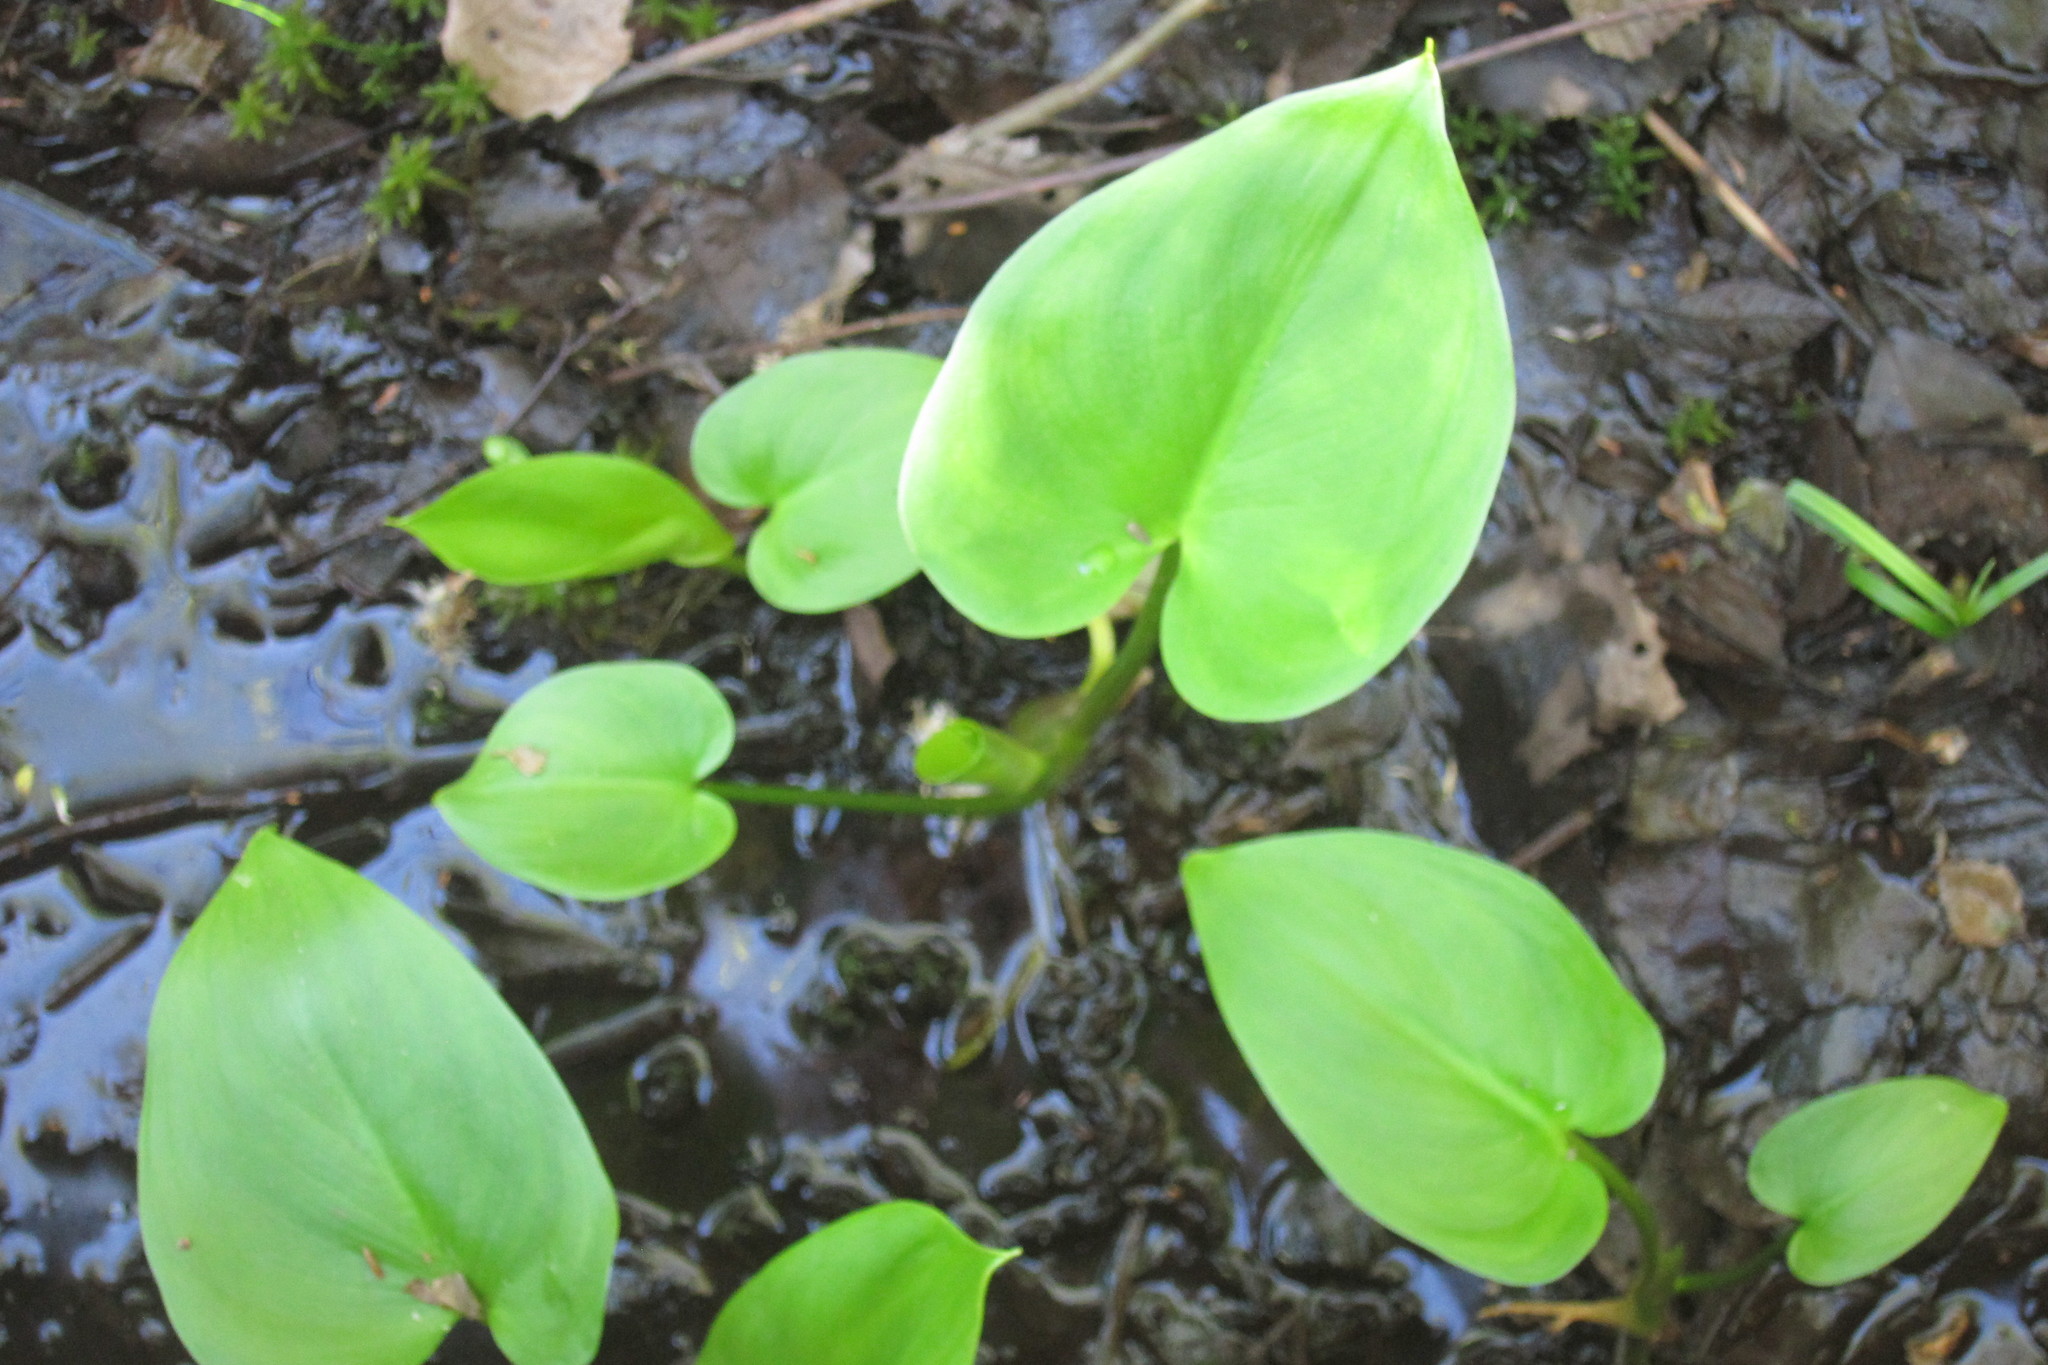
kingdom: Plantae
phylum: Tracheophyta
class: Liliopsida
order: Alismatales
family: Araceae
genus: Calla
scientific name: Calla palustris
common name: Bog arum
